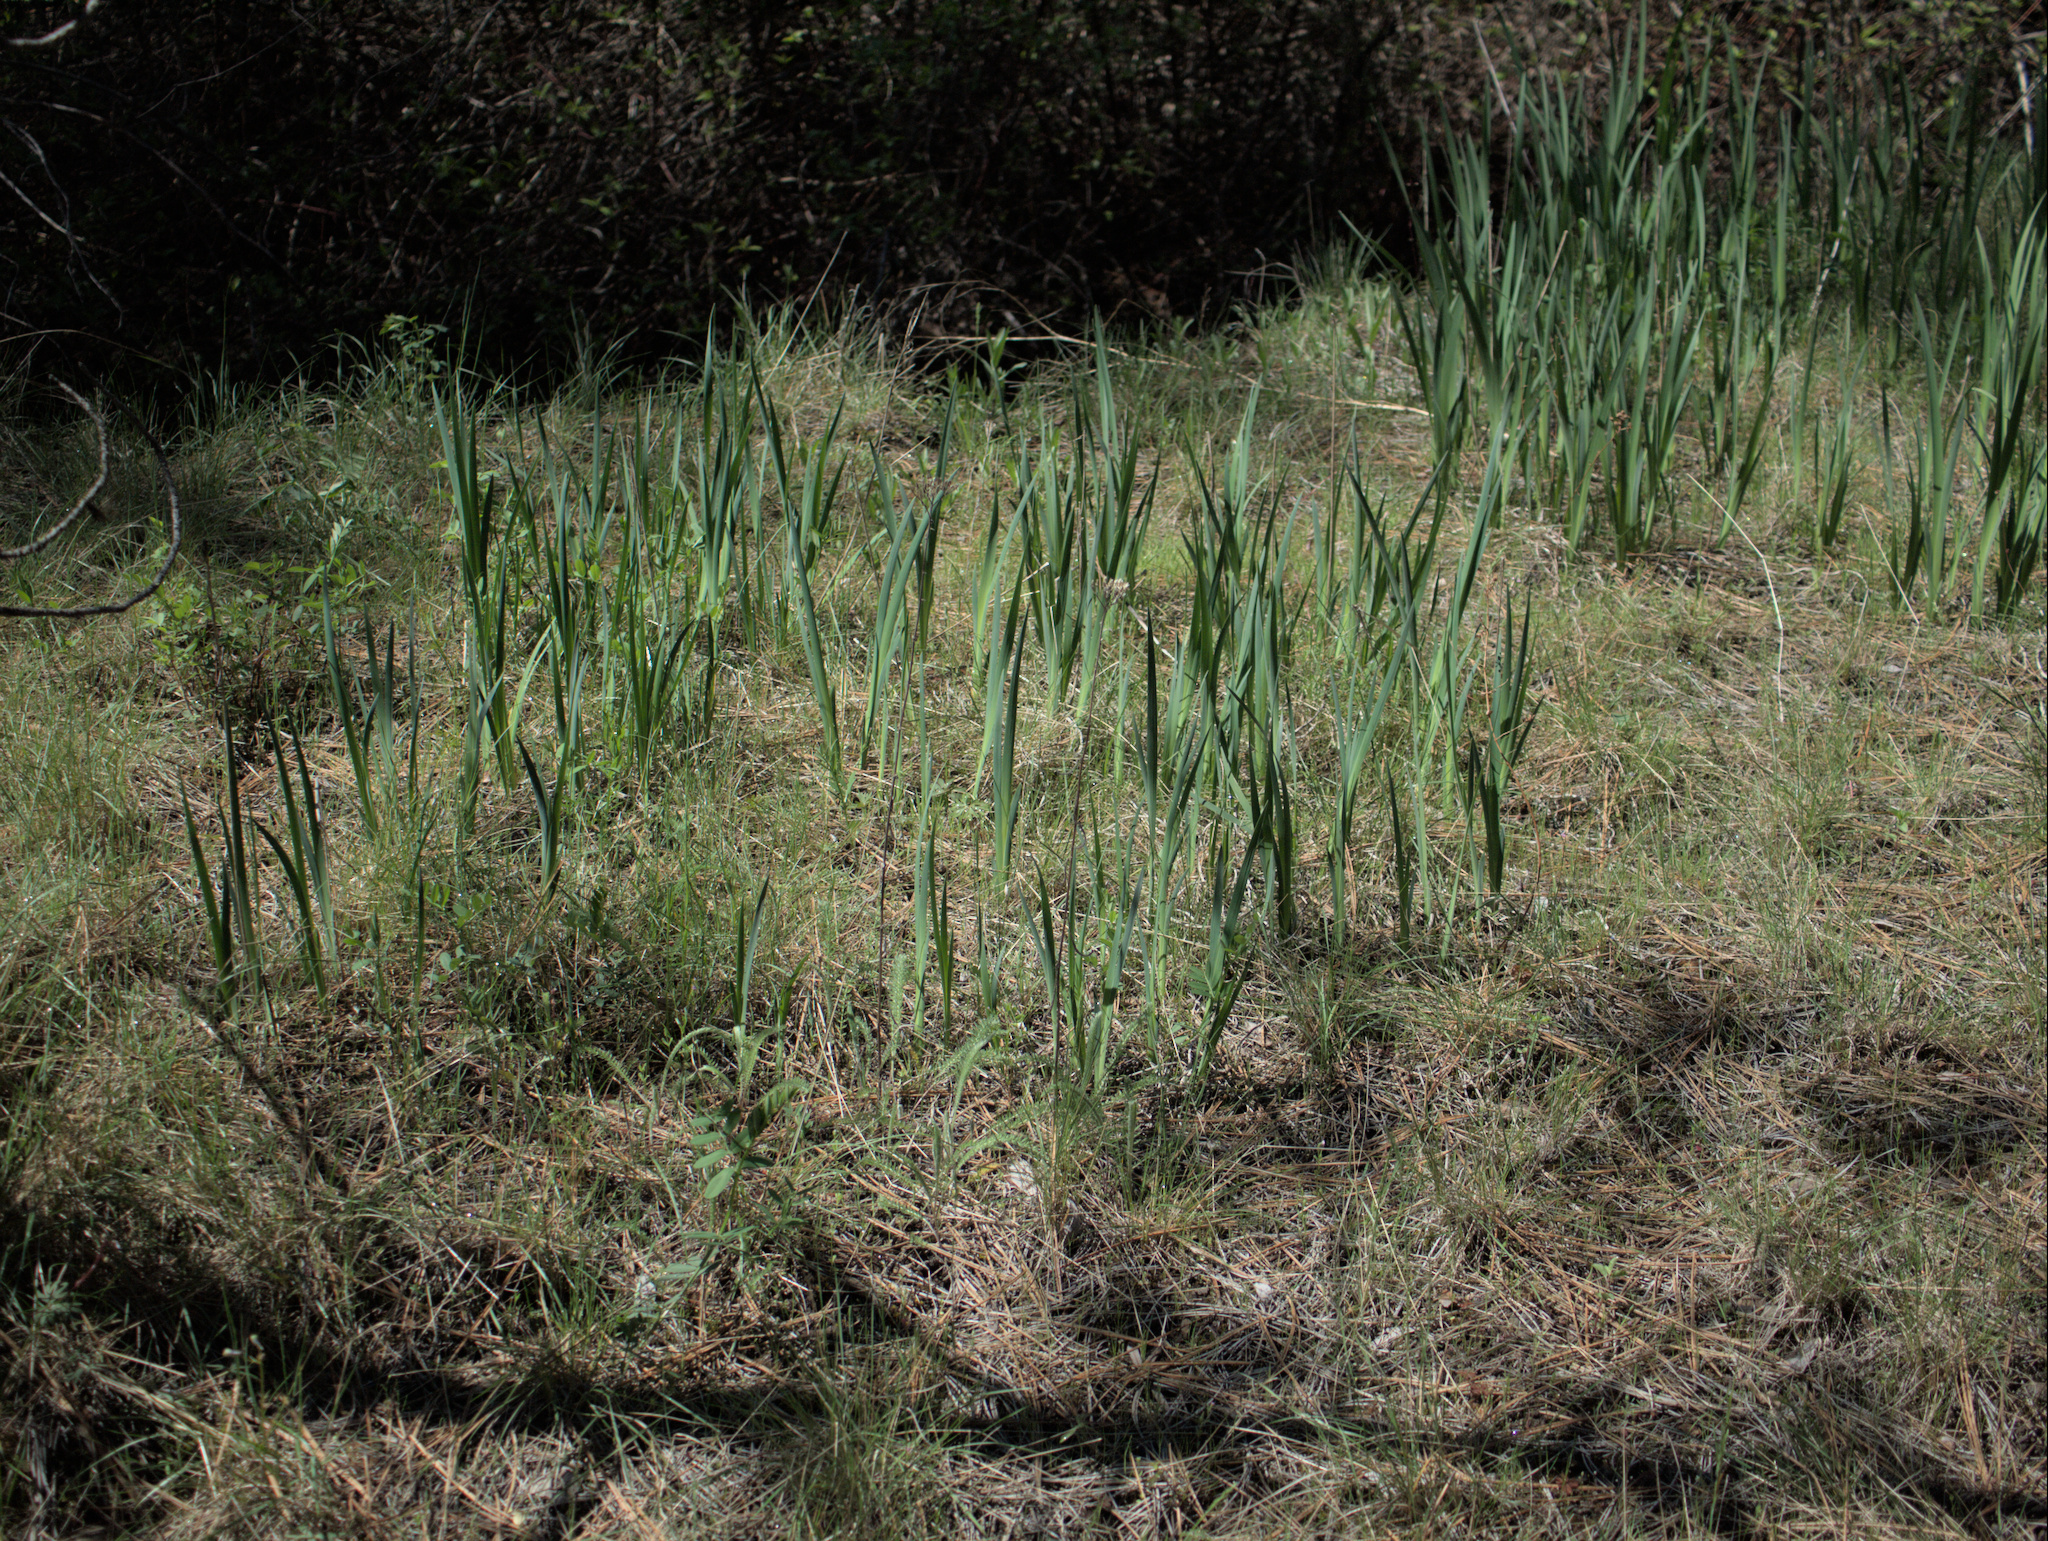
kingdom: Plantae
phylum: Tracheophyta
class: Liliopsida
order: Asparagales
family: Iridaceae
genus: Iris
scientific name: Iris missouriensis
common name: Rocky mountain iris
